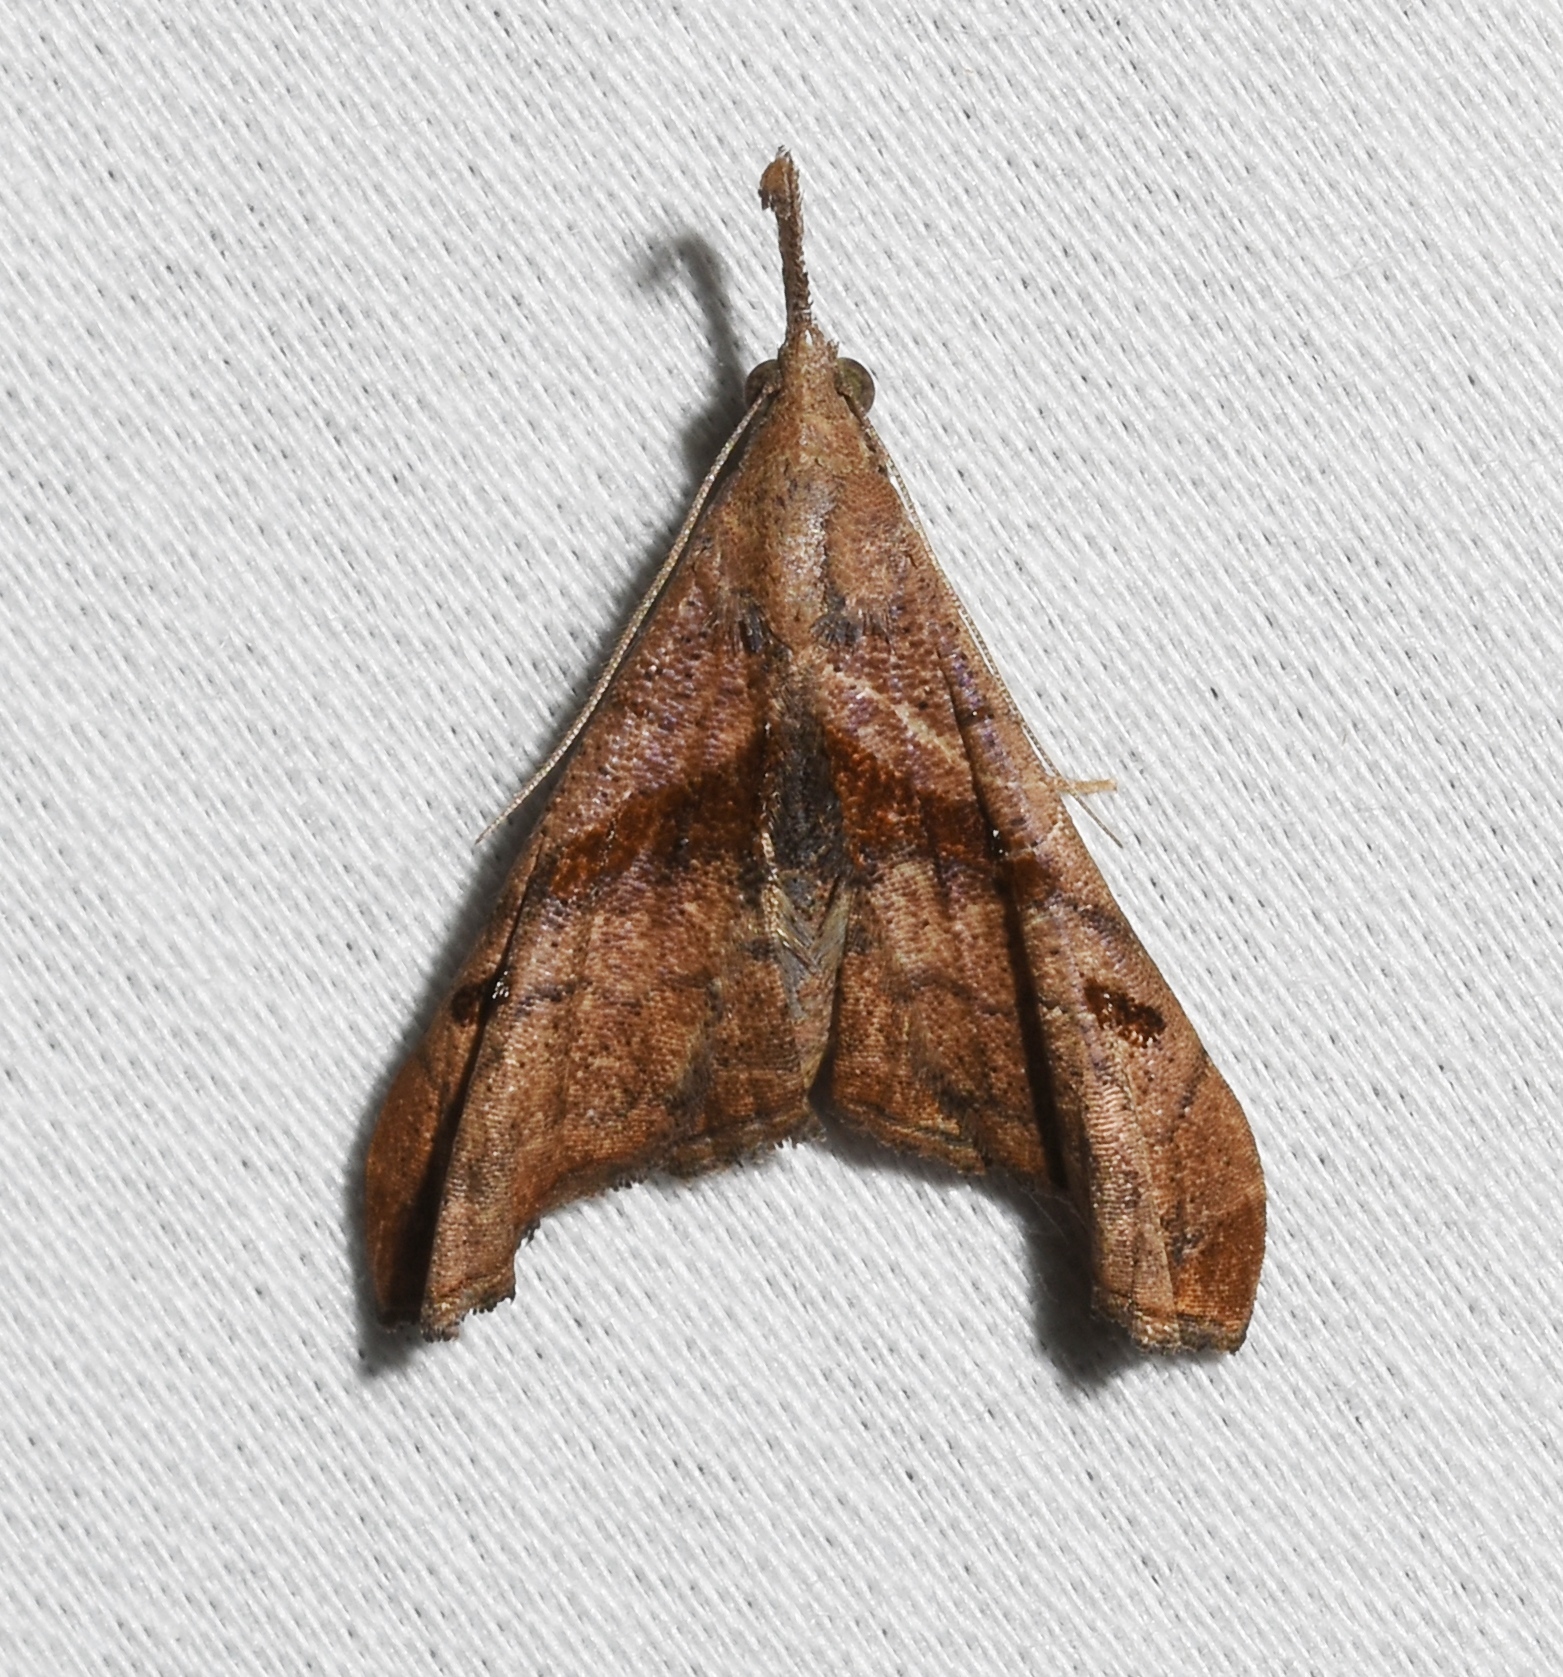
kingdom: Animalia
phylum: Arthropoda
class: Insecta
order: Lepidoptera
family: Erebidae
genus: Palthis
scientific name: Palthis angulalis
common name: Dark-spotted palthis moth
